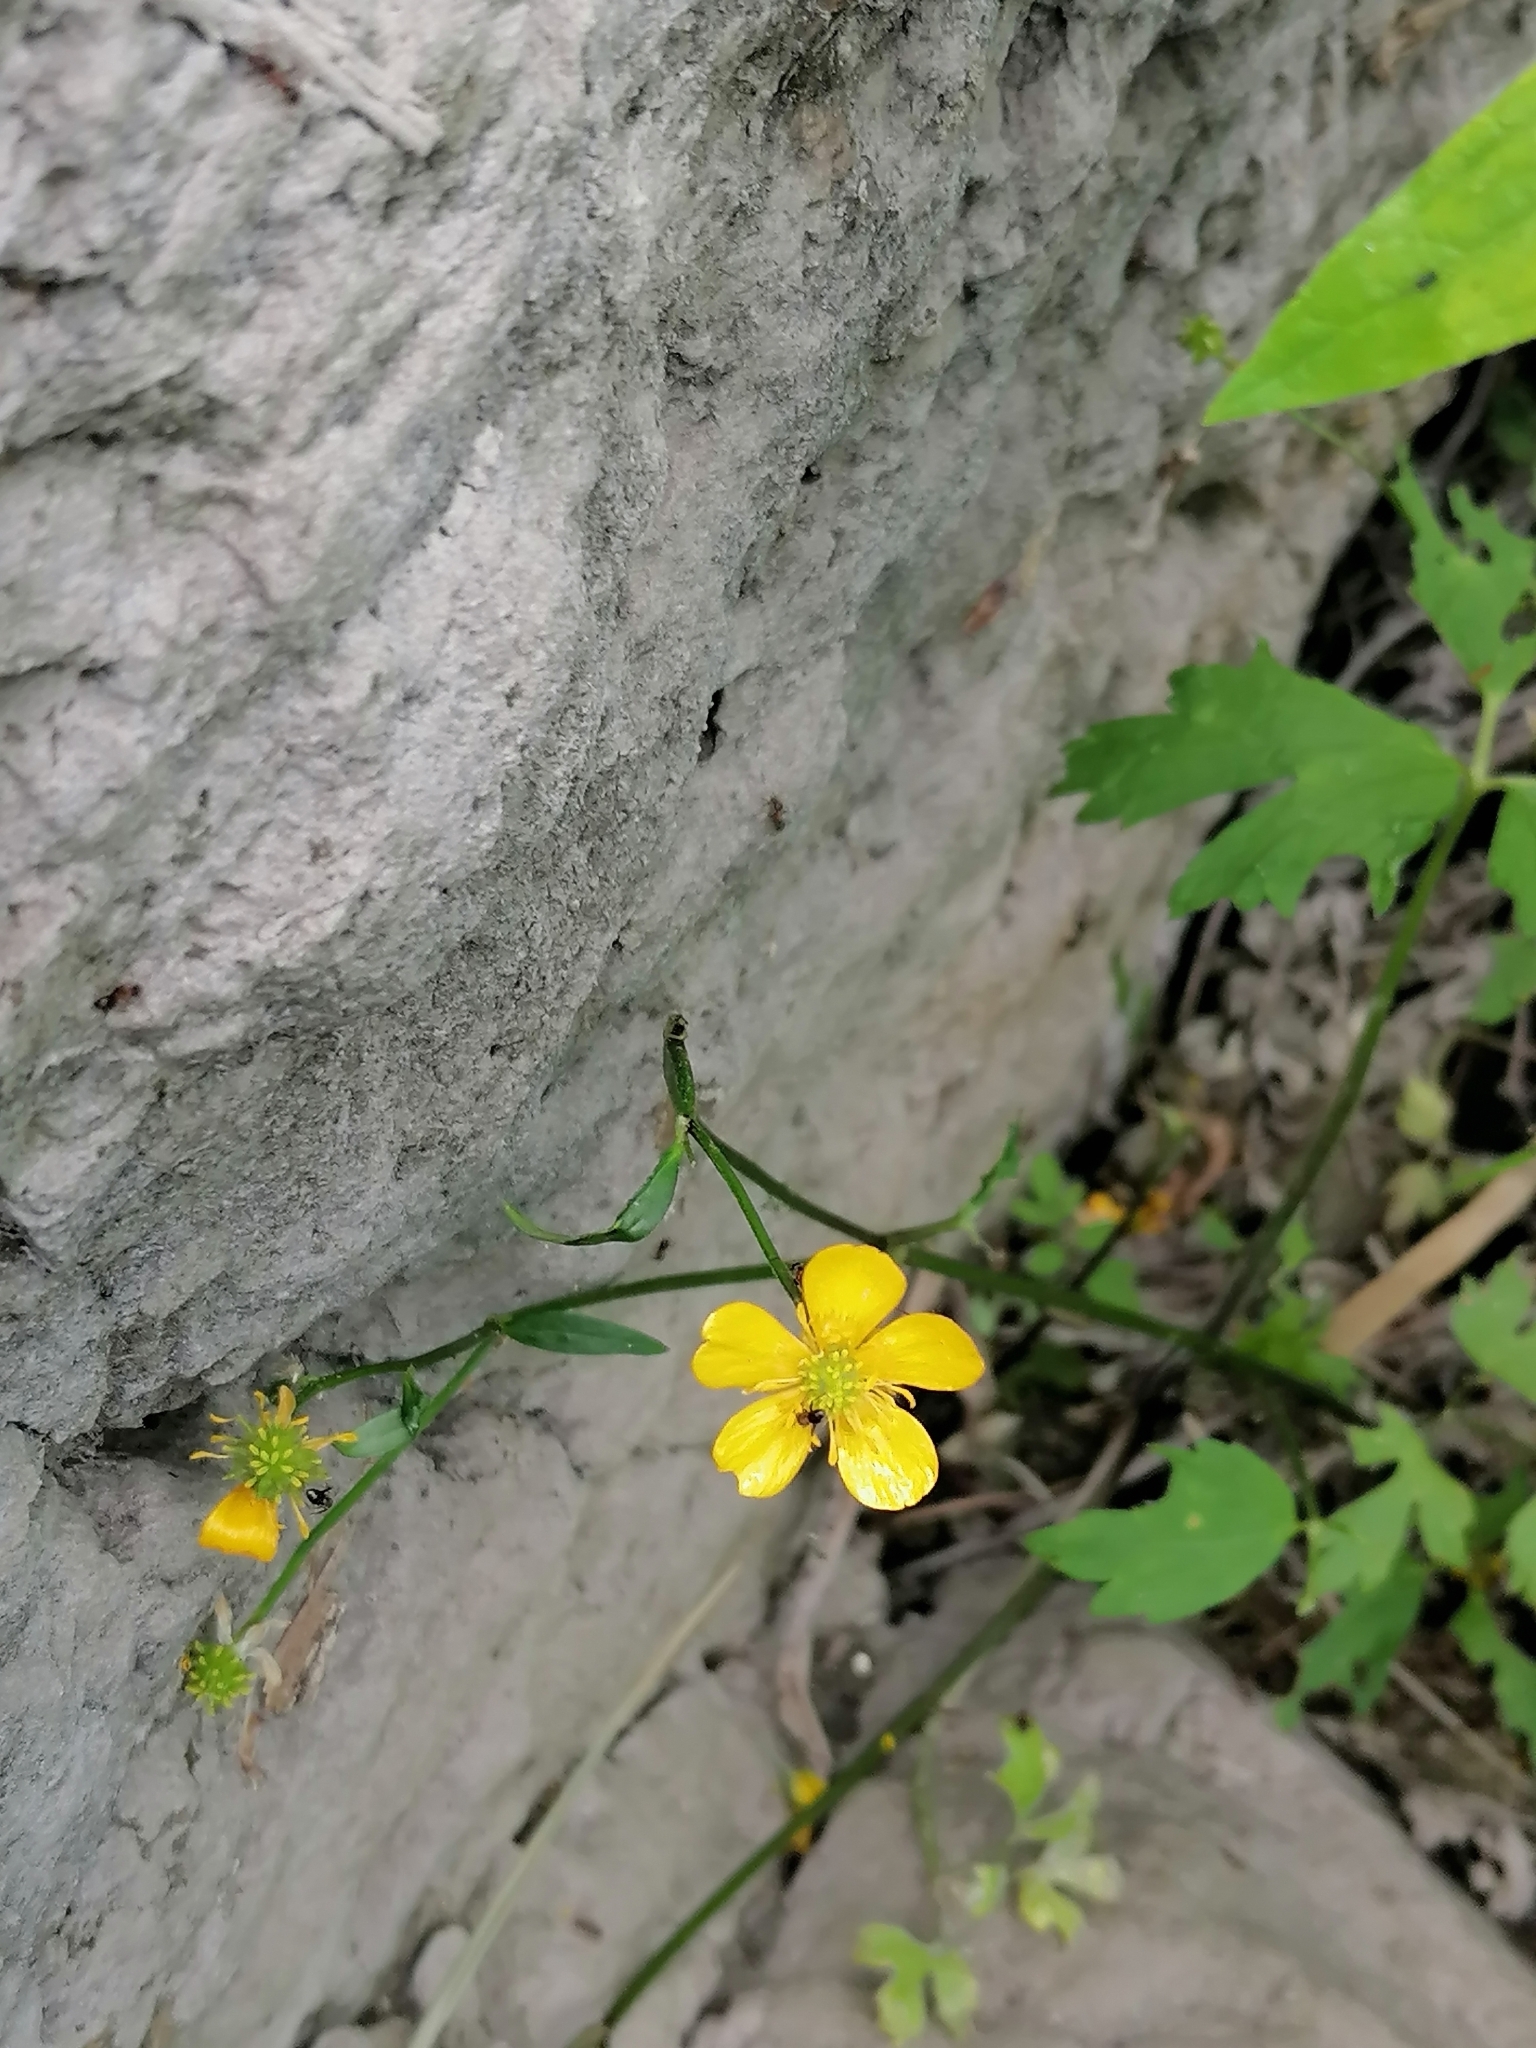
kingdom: Plantae
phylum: Tracheophyta
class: Magnoliopsida
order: Ranunculales
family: Ranunculaceae
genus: Ranunculus
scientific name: Ranunculus repens
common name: Creeping buttercup
